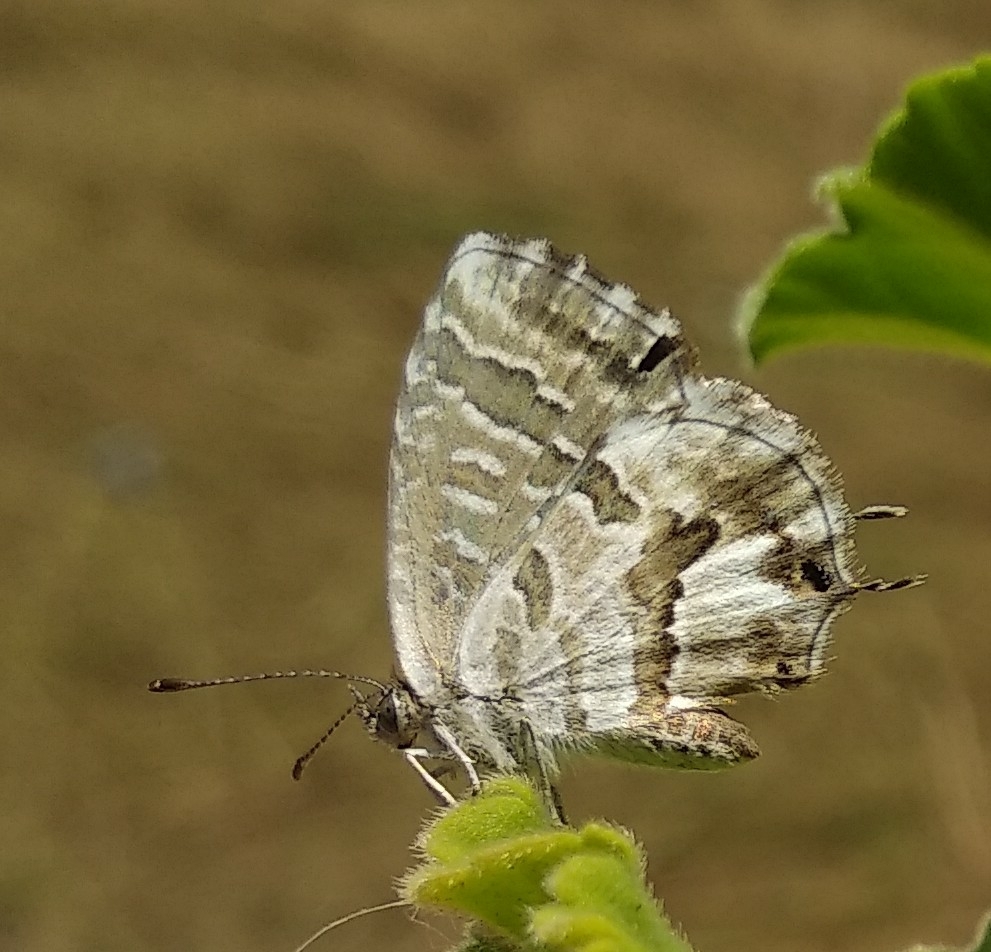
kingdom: Animalia
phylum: Arthropoda
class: Insecta
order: Lepidoptera
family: Lycaenidae
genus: Cacyreus
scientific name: Cacyreus marshalli
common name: Geranium bronze
